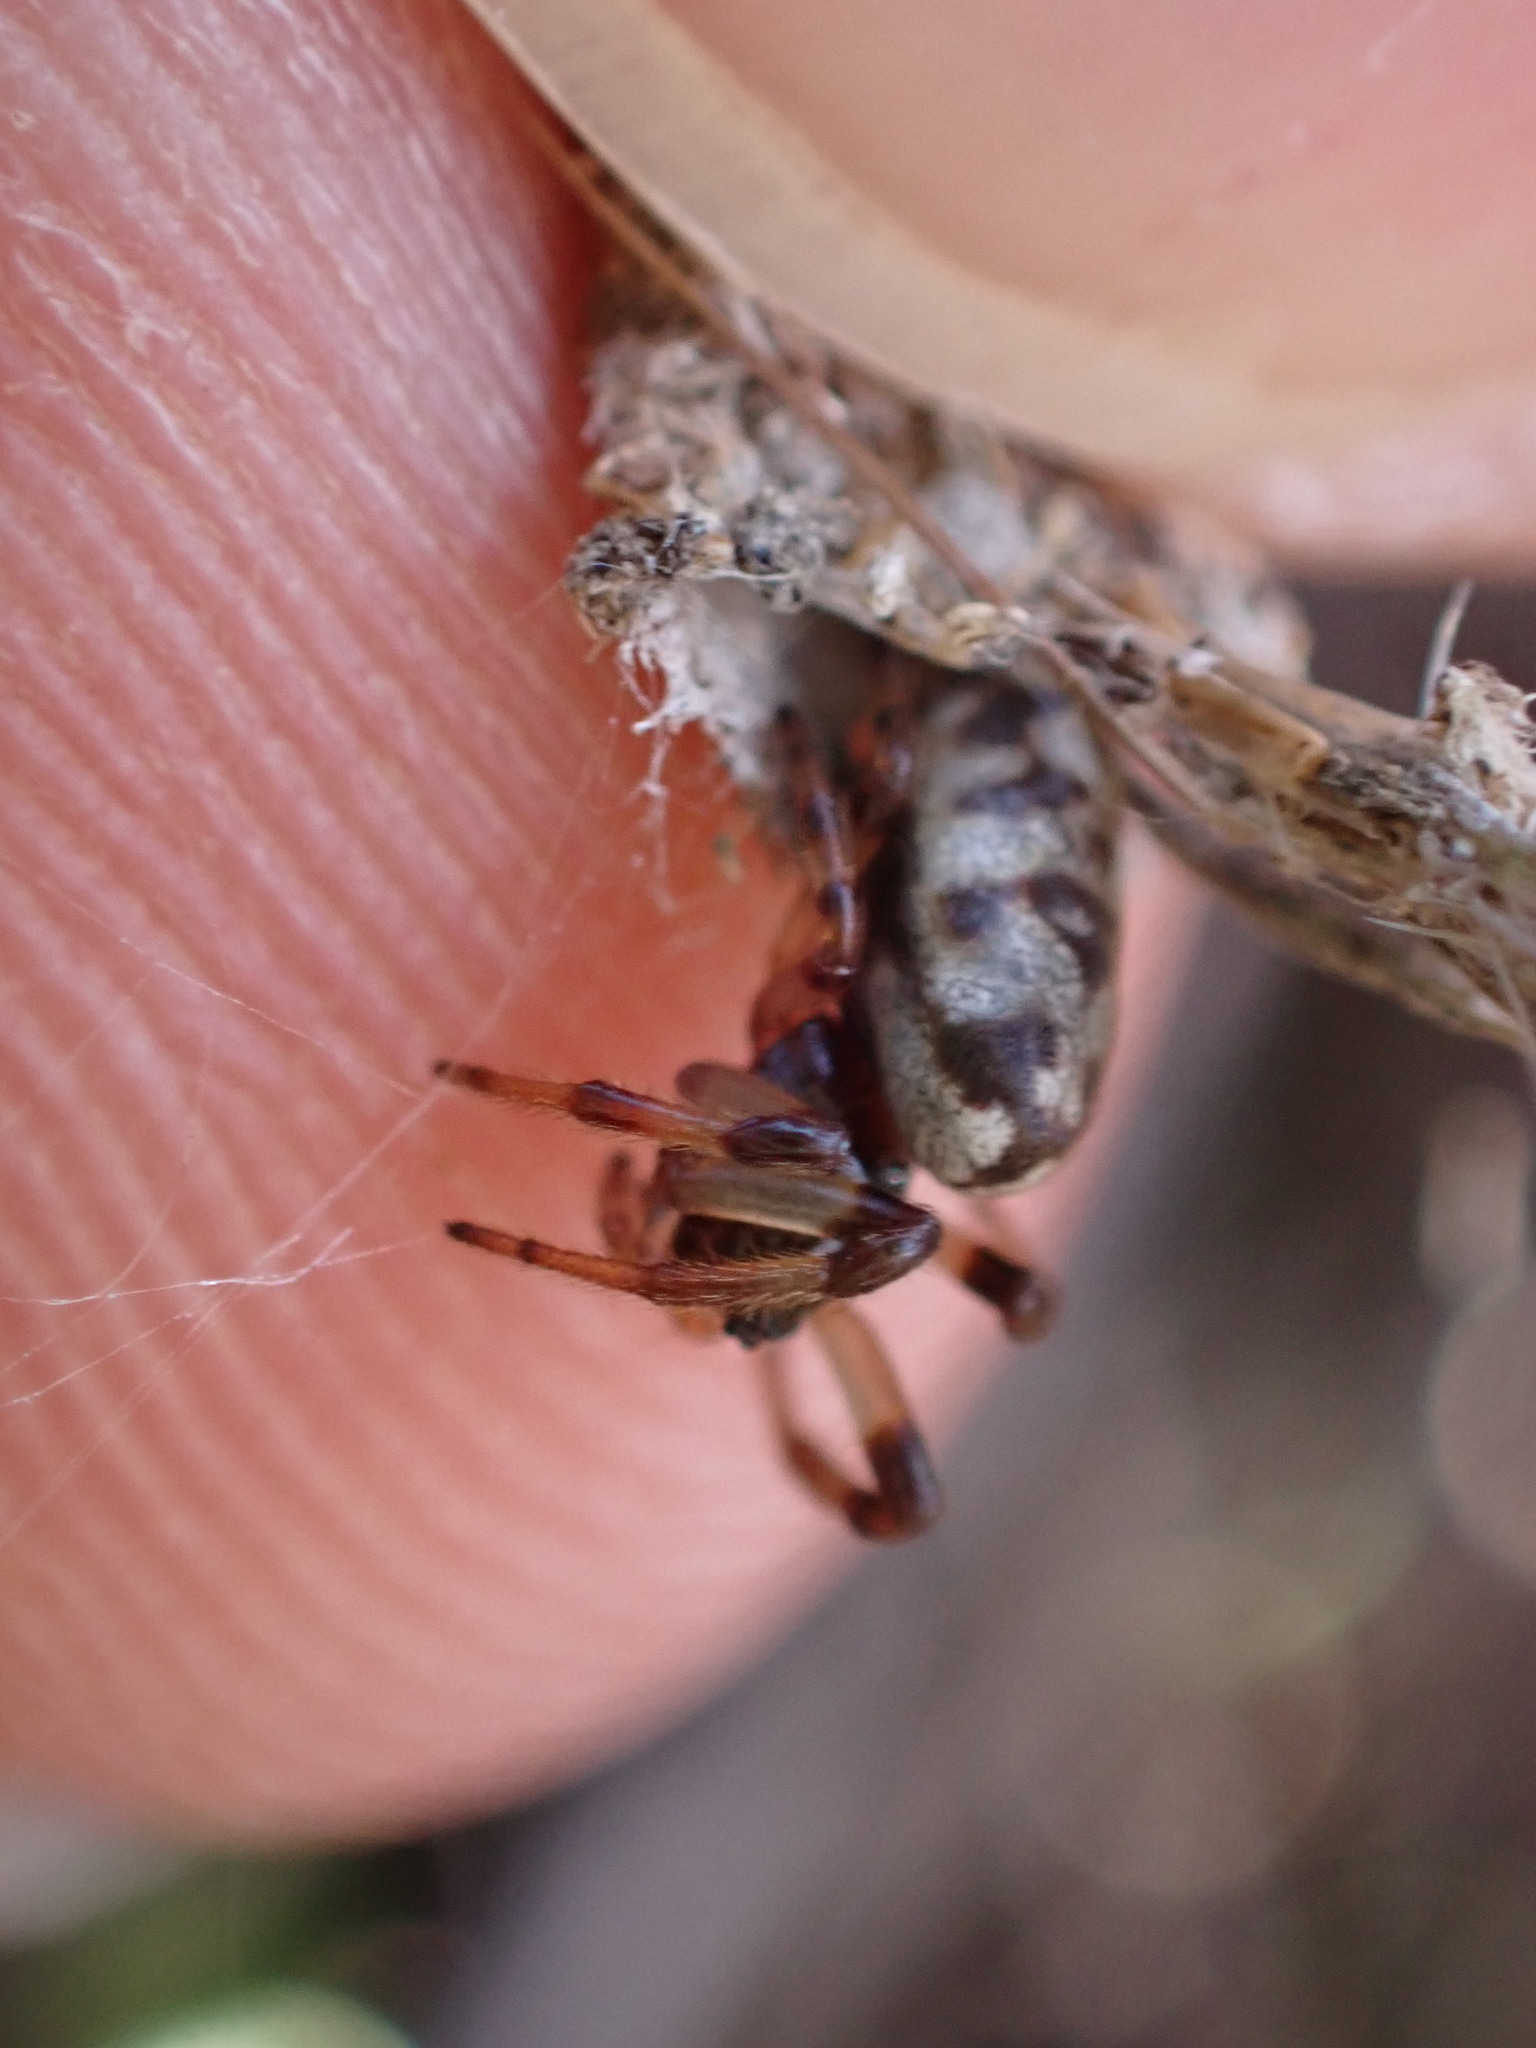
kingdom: Animalia
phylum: Arthropoda
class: Arachnida
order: Araneae
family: Araneidae
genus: Nemoscolus
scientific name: Nemoscolus laurae
